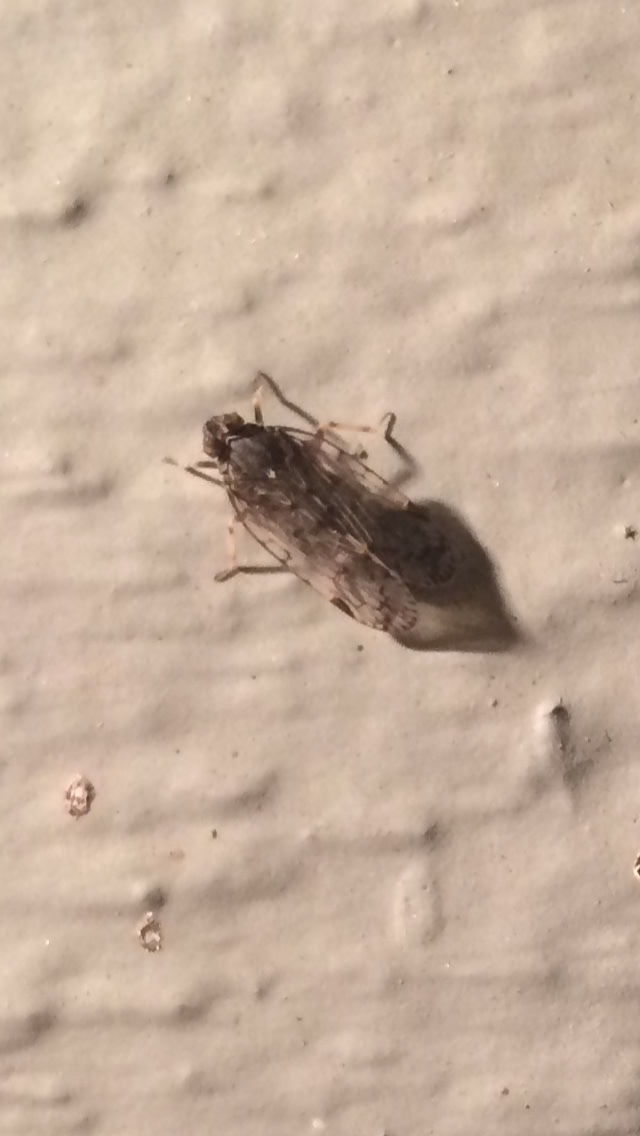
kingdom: Animalia
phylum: Arthropoda
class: Insecta
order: Hemiptera
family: Cixiidae
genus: Melanoliarus
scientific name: Melanoliarus placitus
